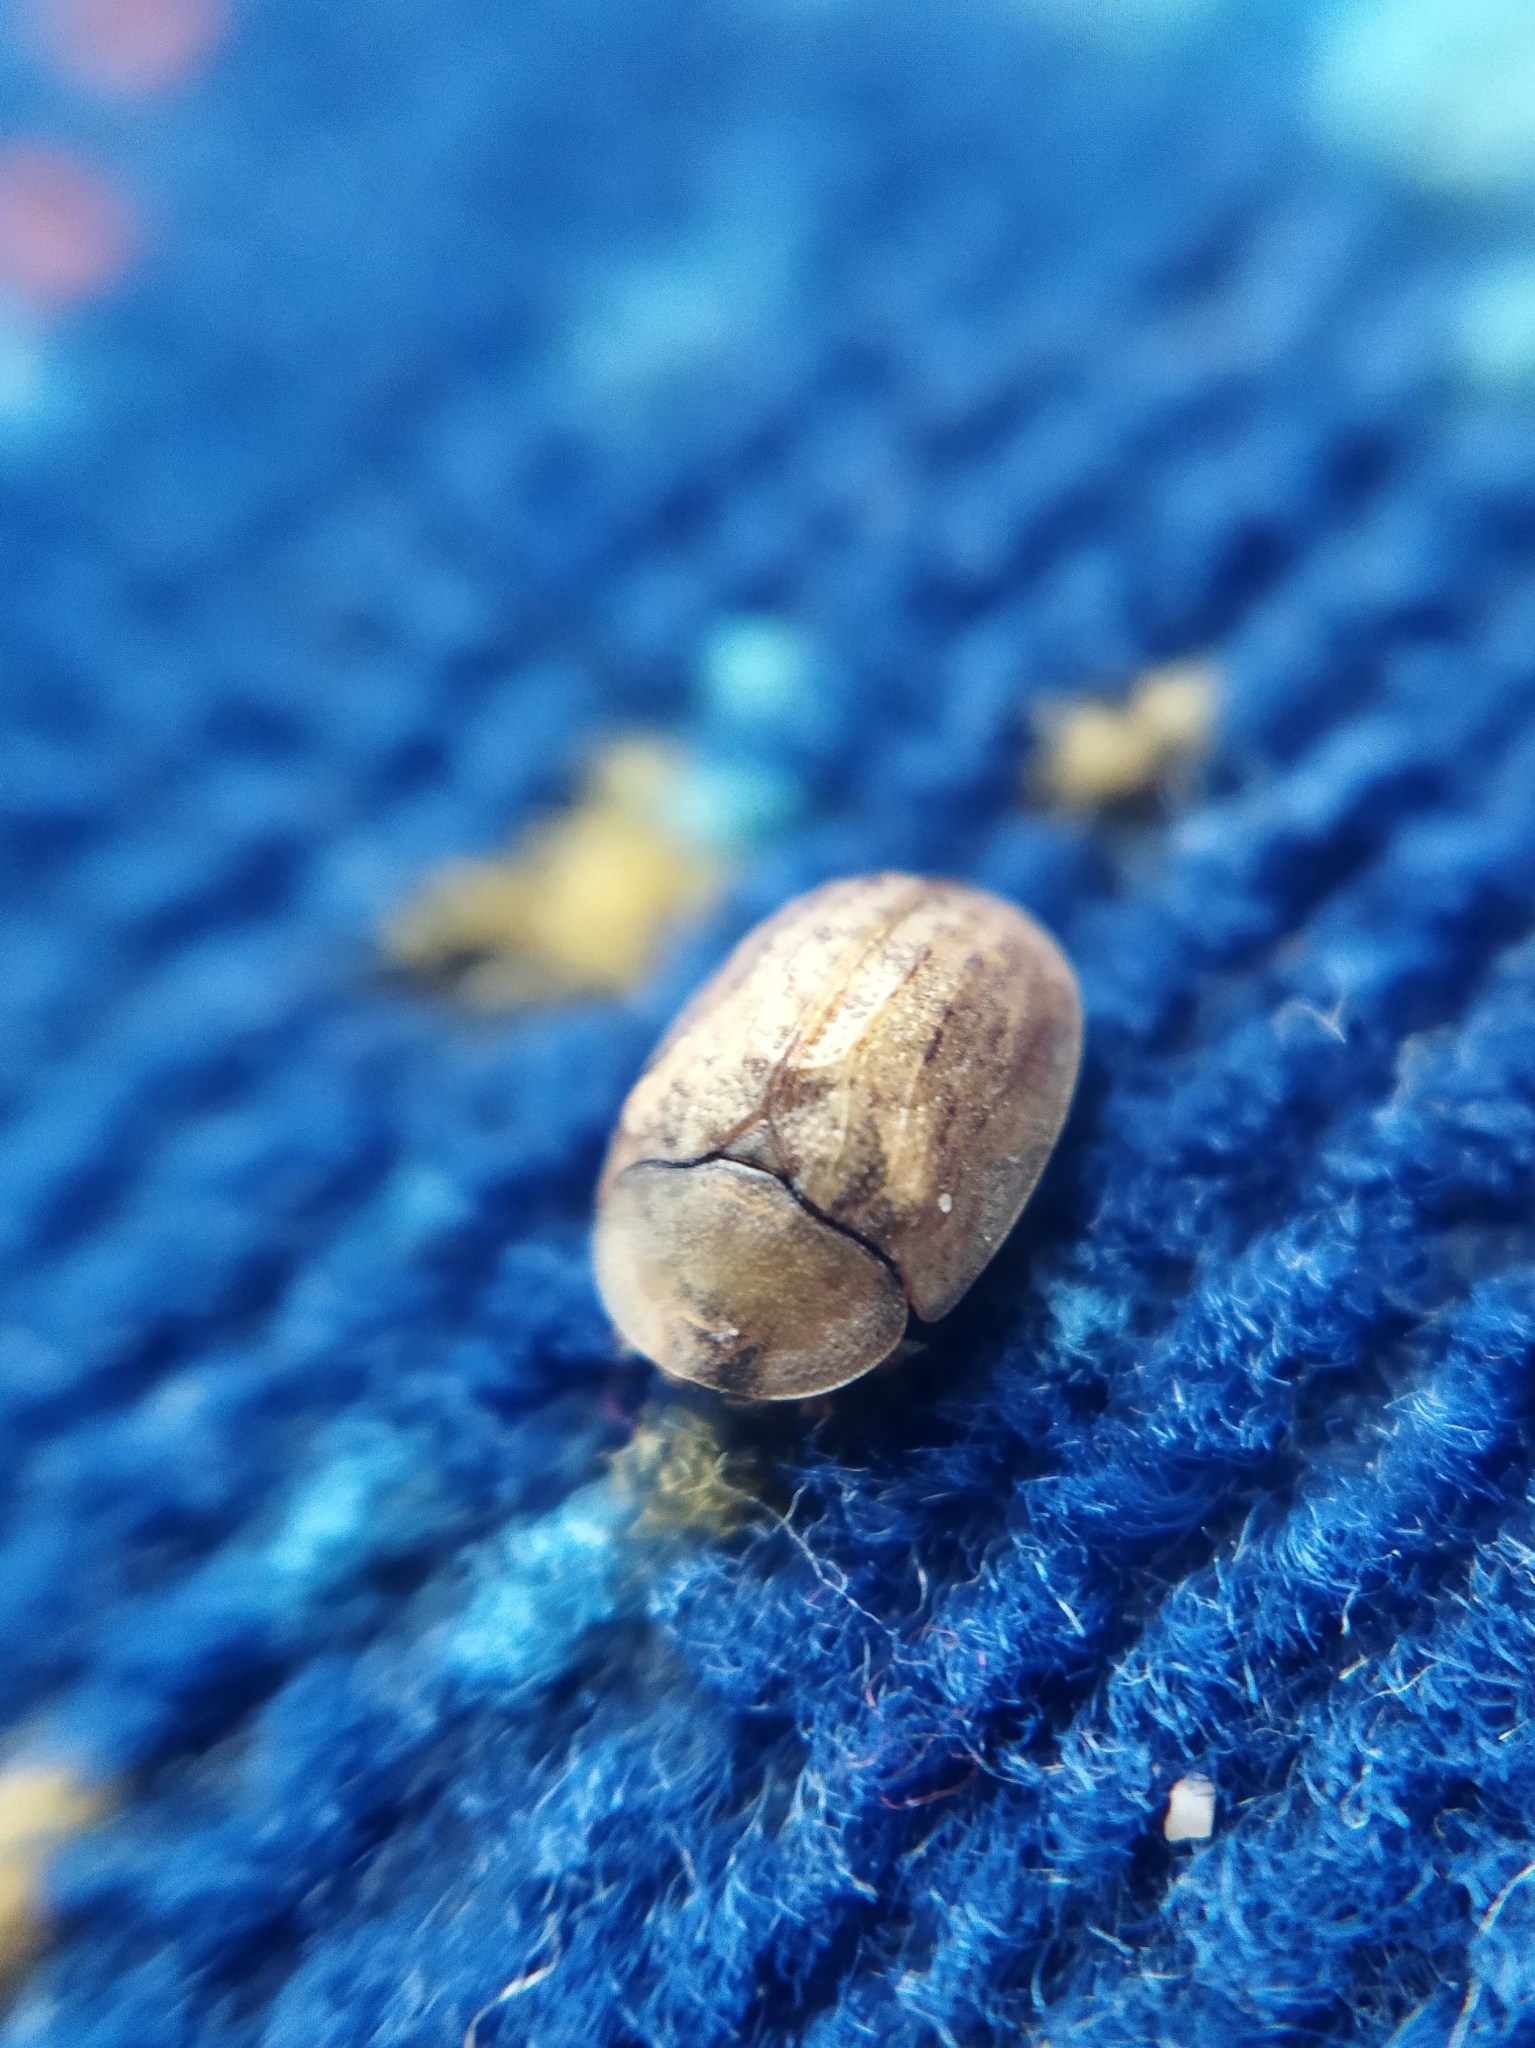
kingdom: Animalia
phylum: Arthropoda
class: Insecta
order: Coleoptera
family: Chrysomelidae
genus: Hypocassida
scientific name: Hypocassida subferruginea
